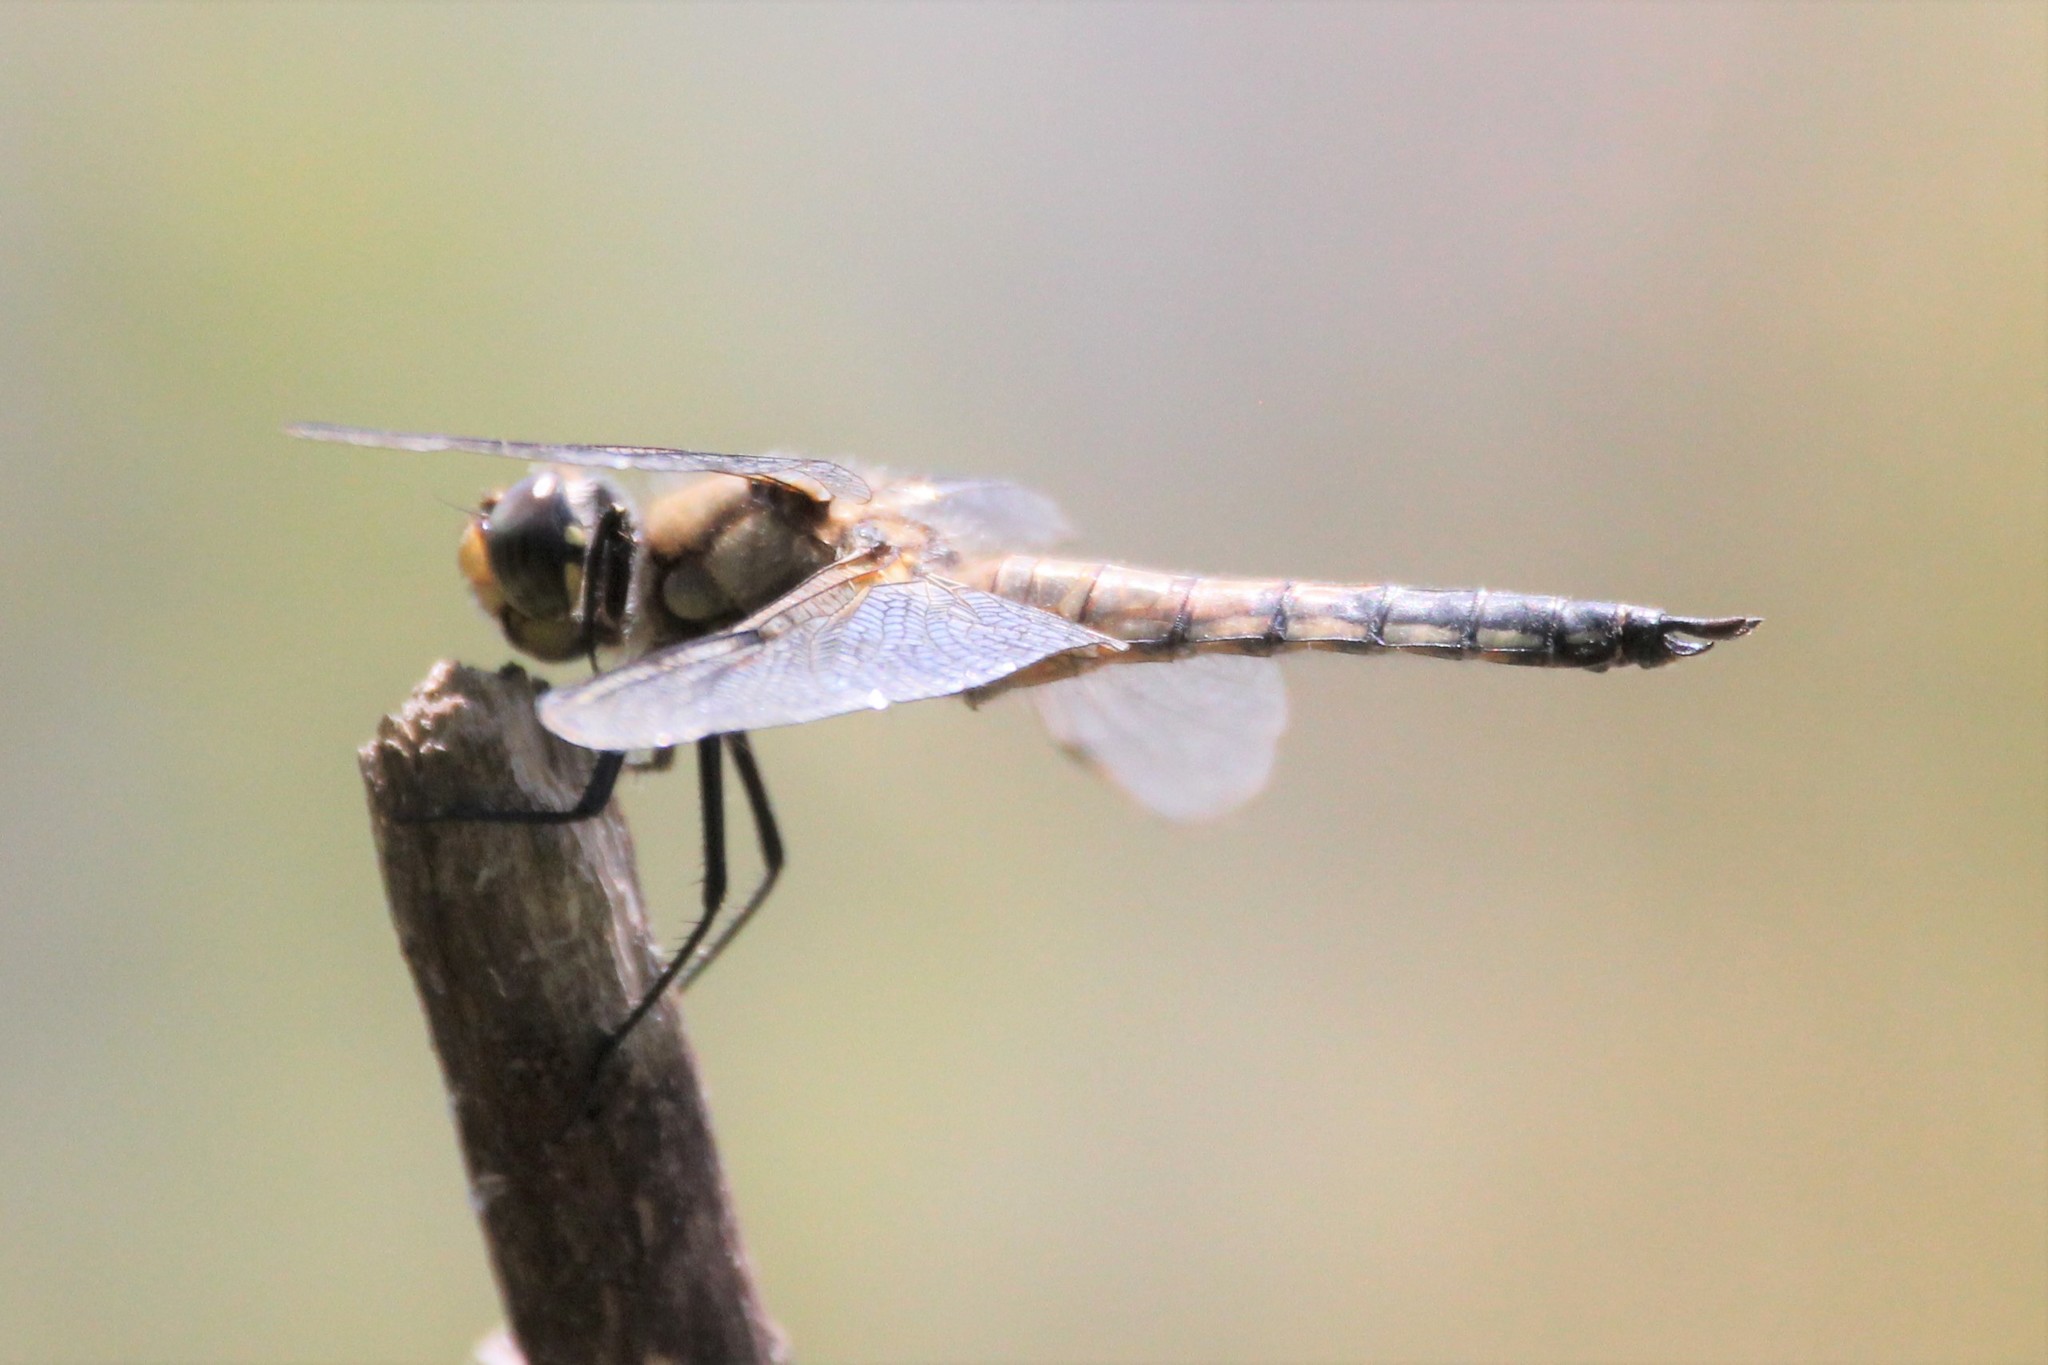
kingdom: Animalia
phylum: Arthropoda
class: Insecta
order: Odonata
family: Libellulidae
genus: Libellula
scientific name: Libellula quadrimaculata
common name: Four-spotted chaser
